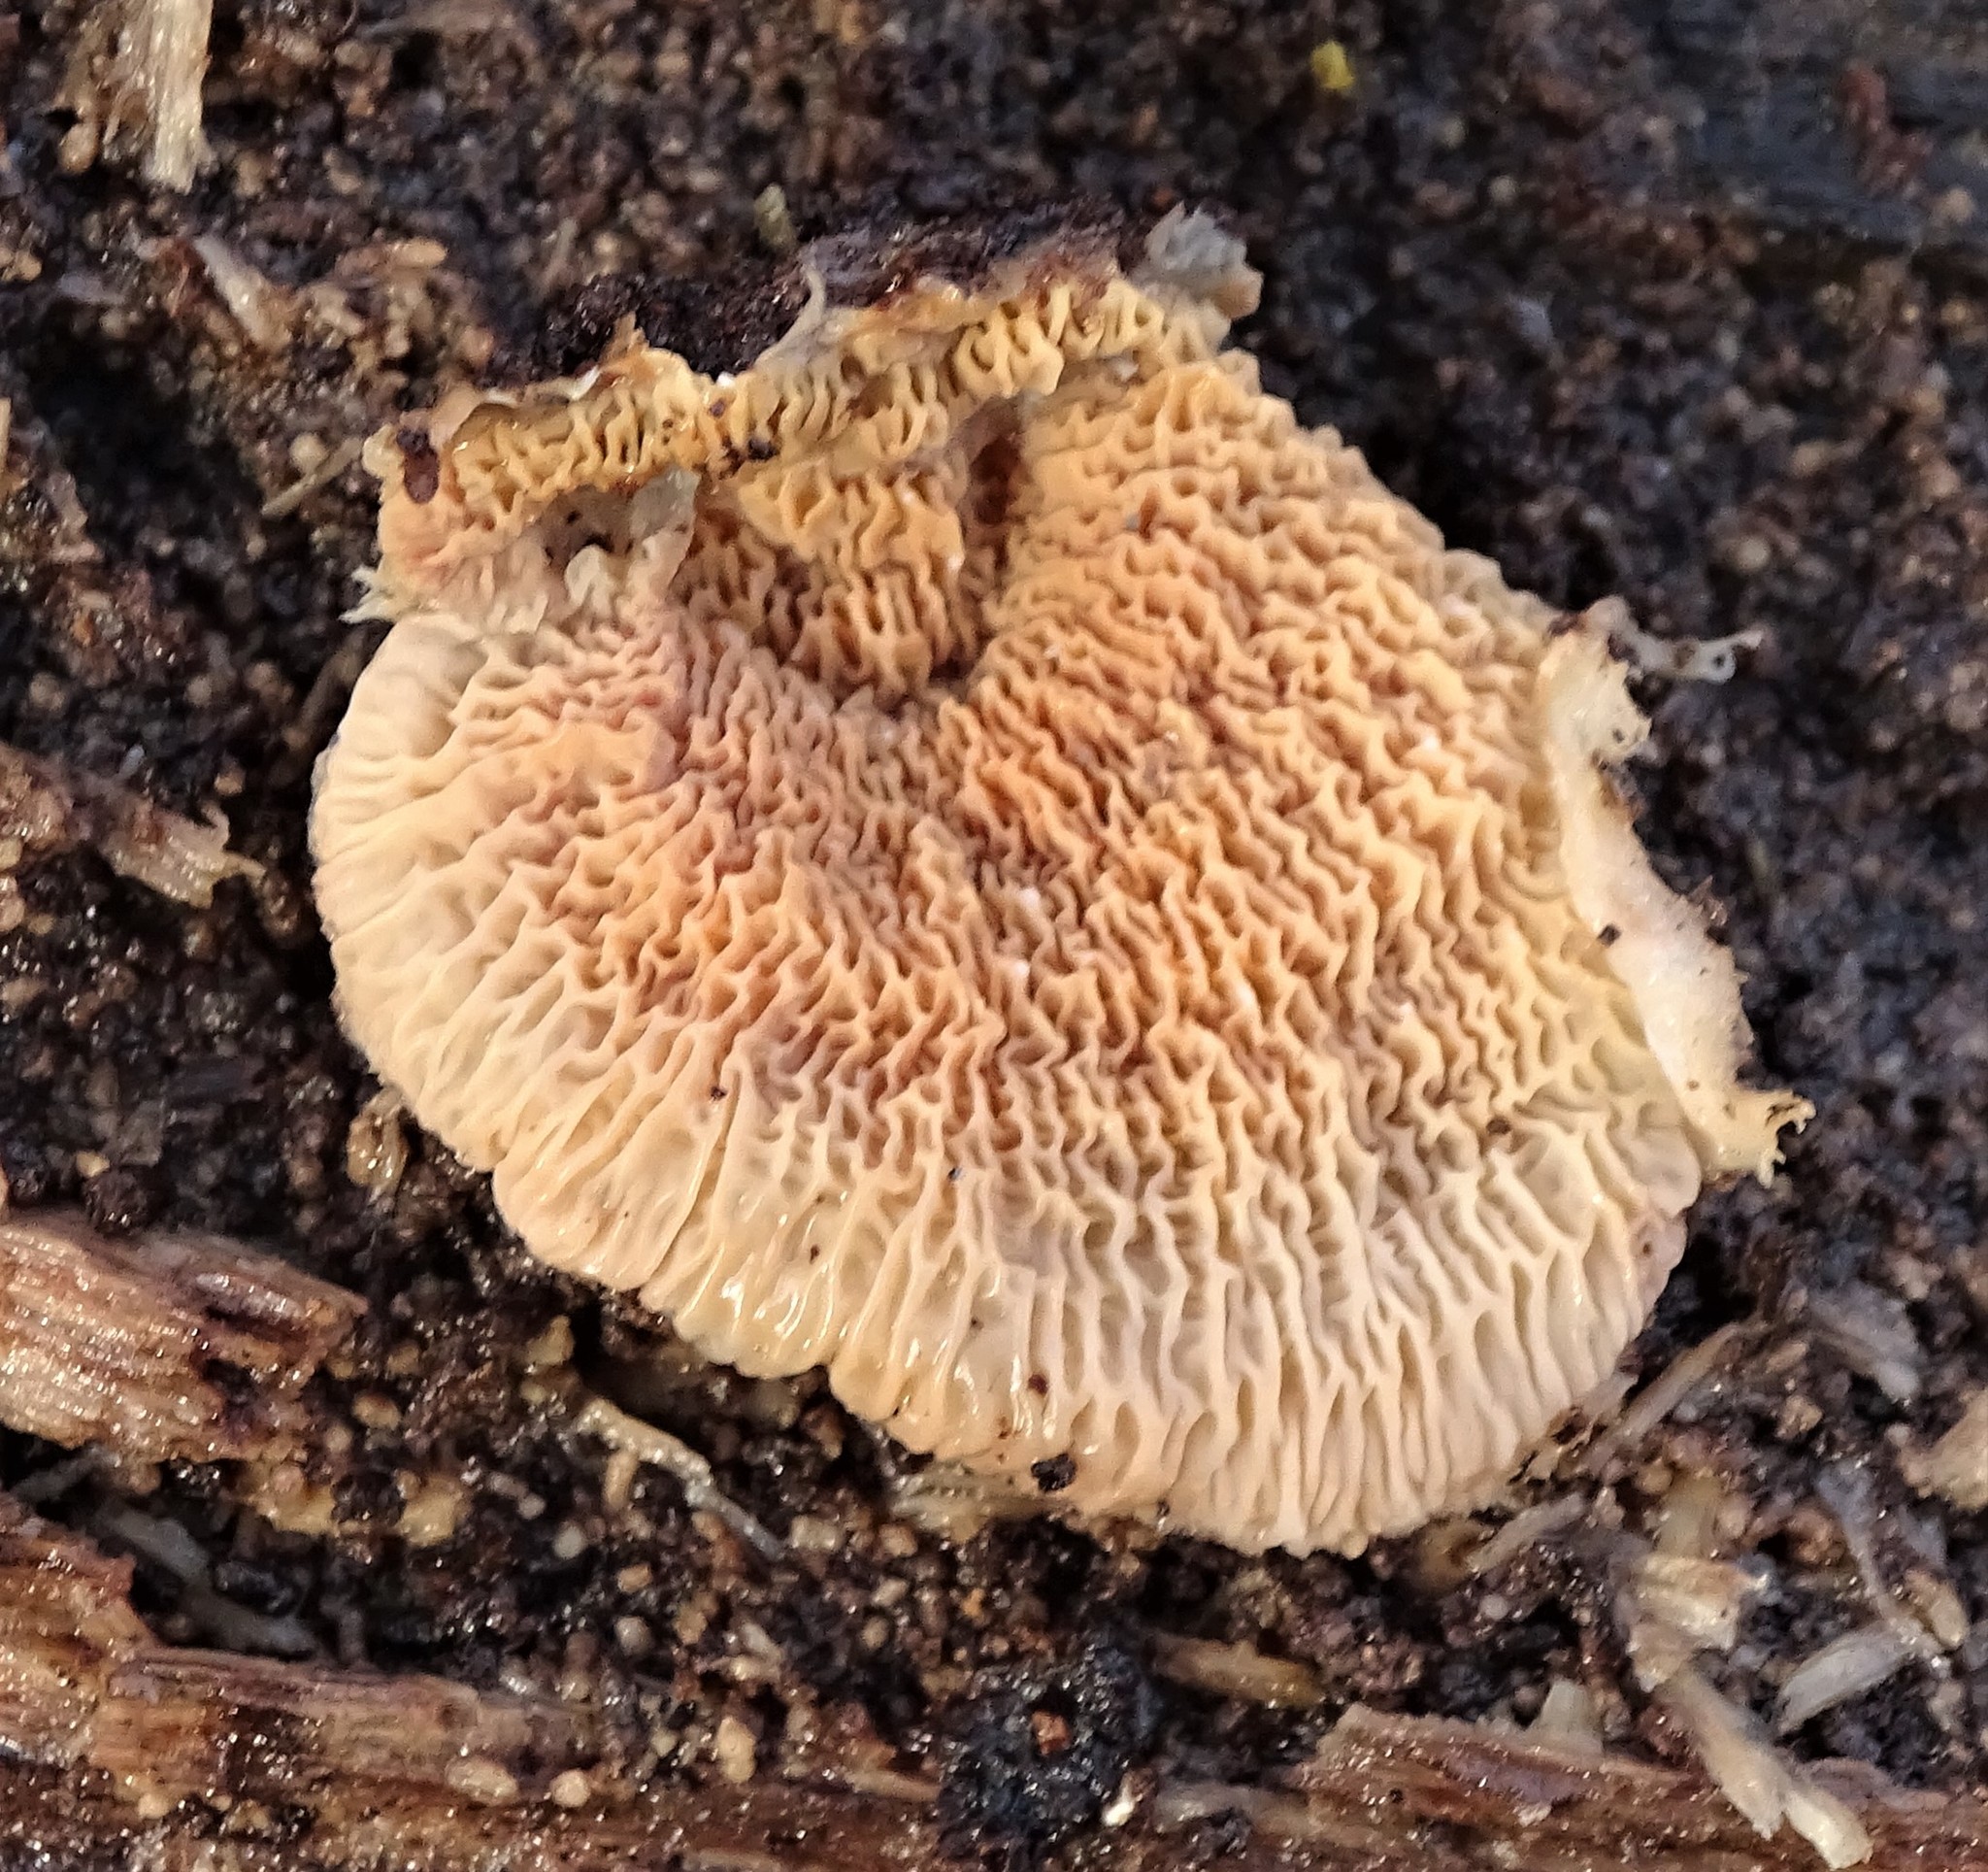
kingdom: Fungi
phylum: Basidiomycota
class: Agaricomycetes
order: Polyporales
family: Meruliaceae
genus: Phlebia
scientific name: Phlebia tremellosa
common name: Jelly rot
